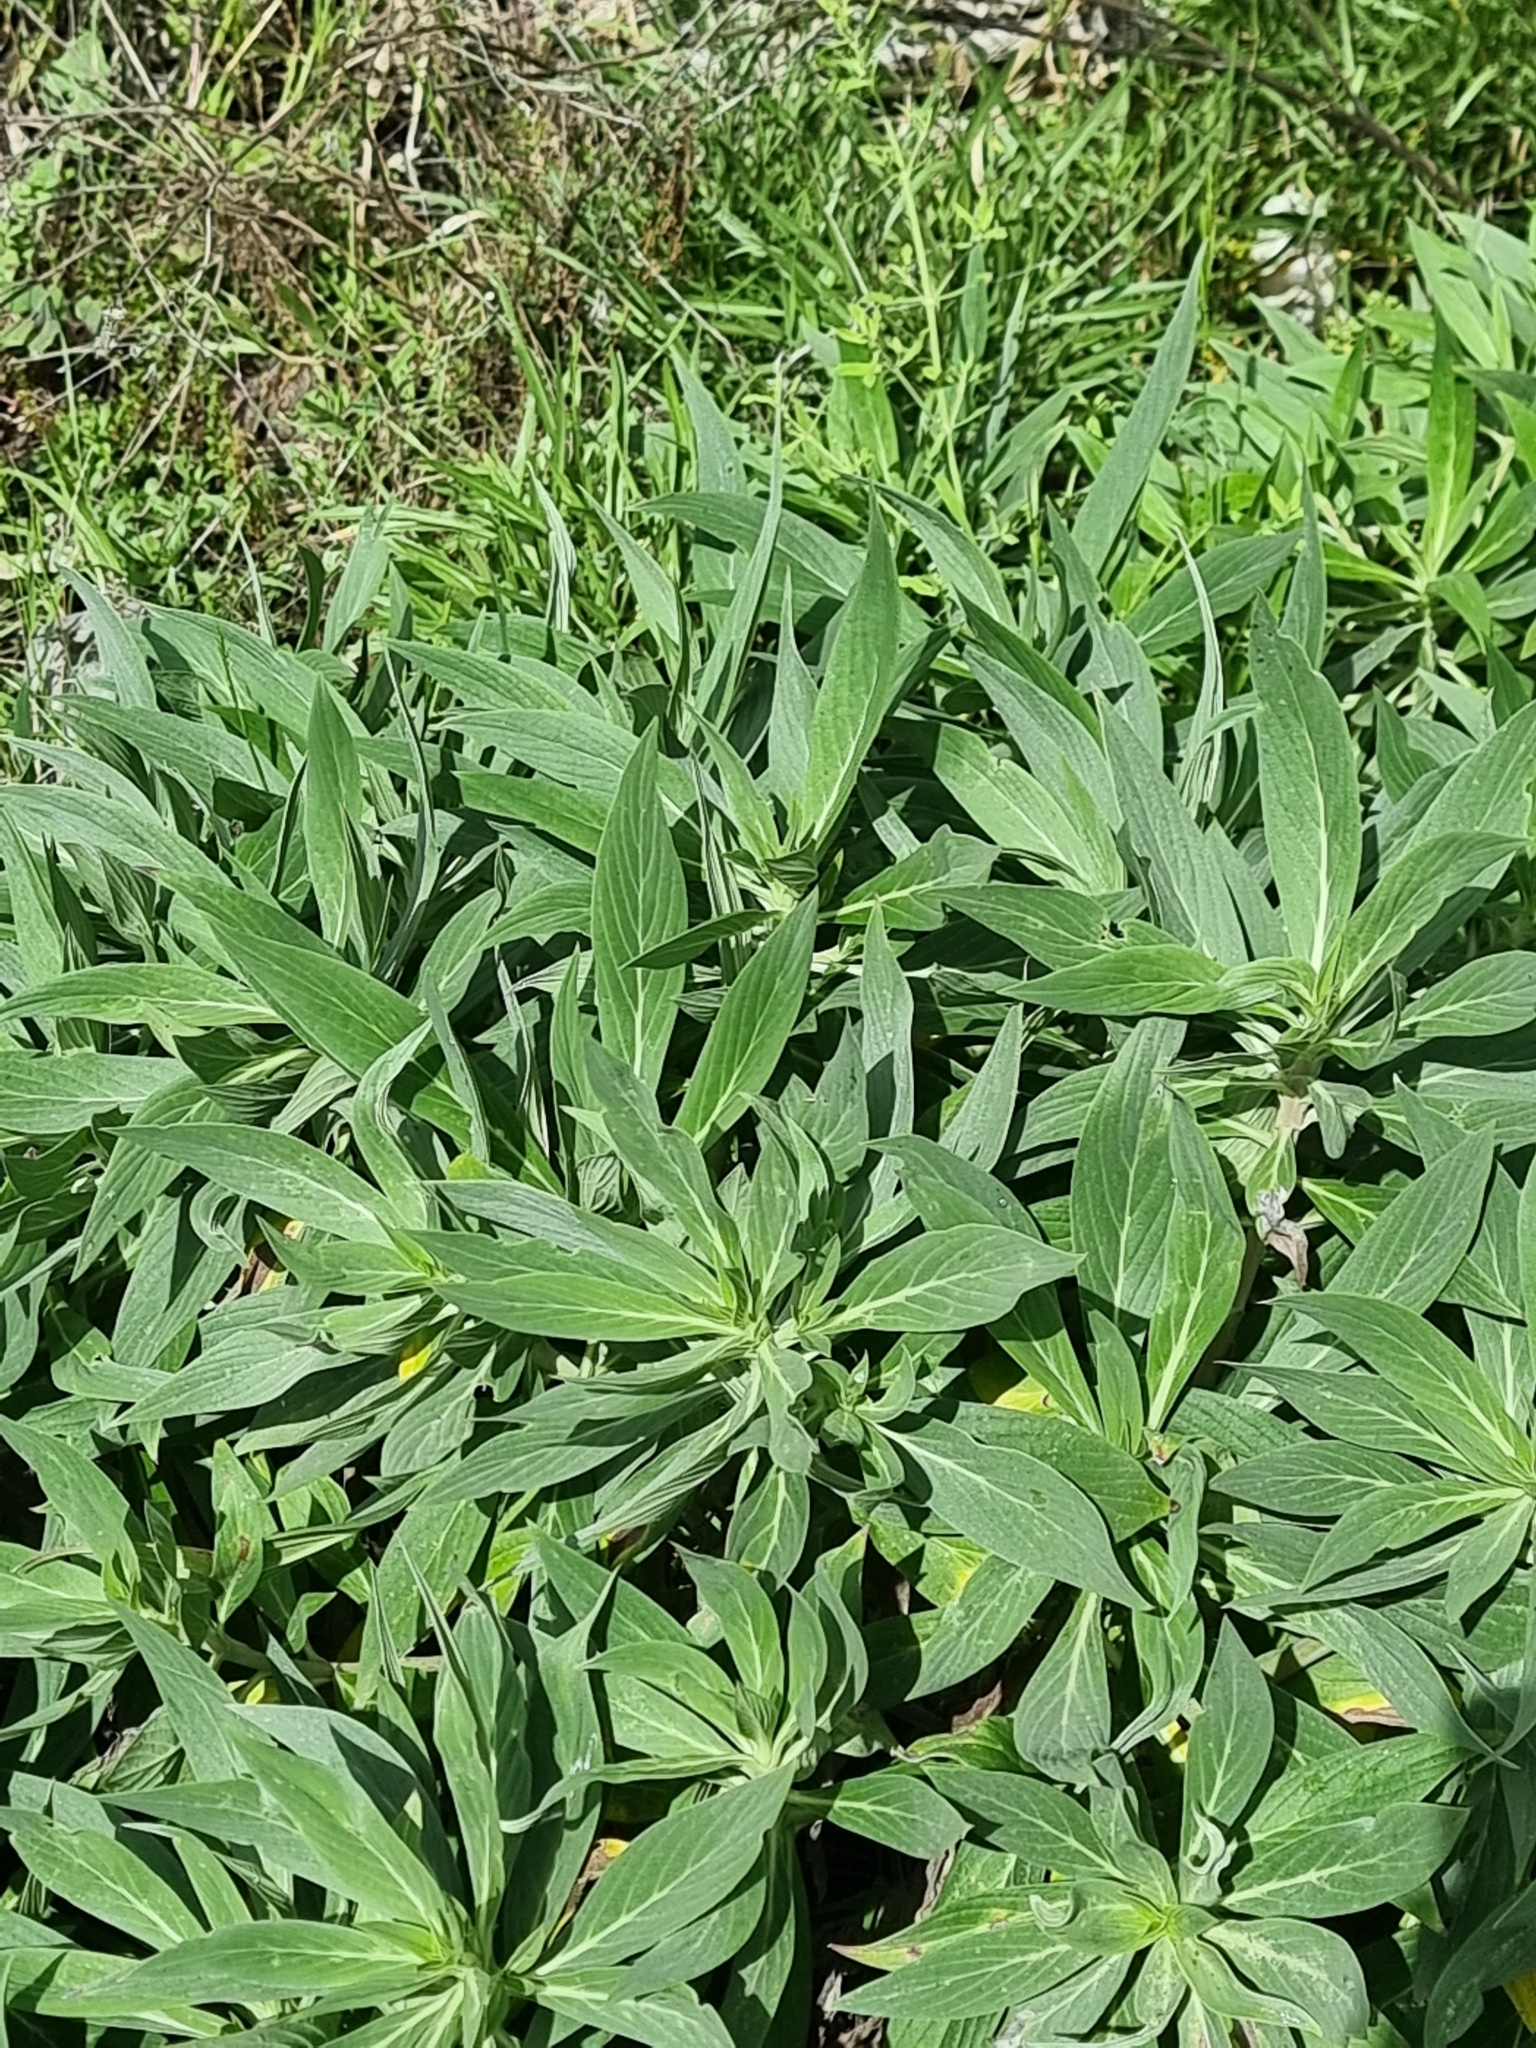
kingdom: Plantae
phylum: Tracheophyta
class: Magnoliopsida
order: Boraginales
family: Boraginaceae
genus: Echium
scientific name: Echium nervosum
